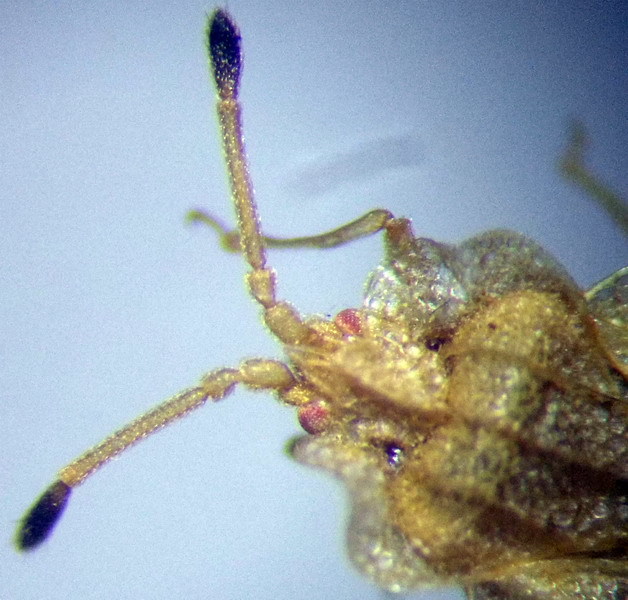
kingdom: Animalia
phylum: Arthropoda
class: Insecta
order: Hemiptera
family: Tingidae
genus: Tingis
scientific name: Tingis ampliata
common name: Creeping thistle lacebug
